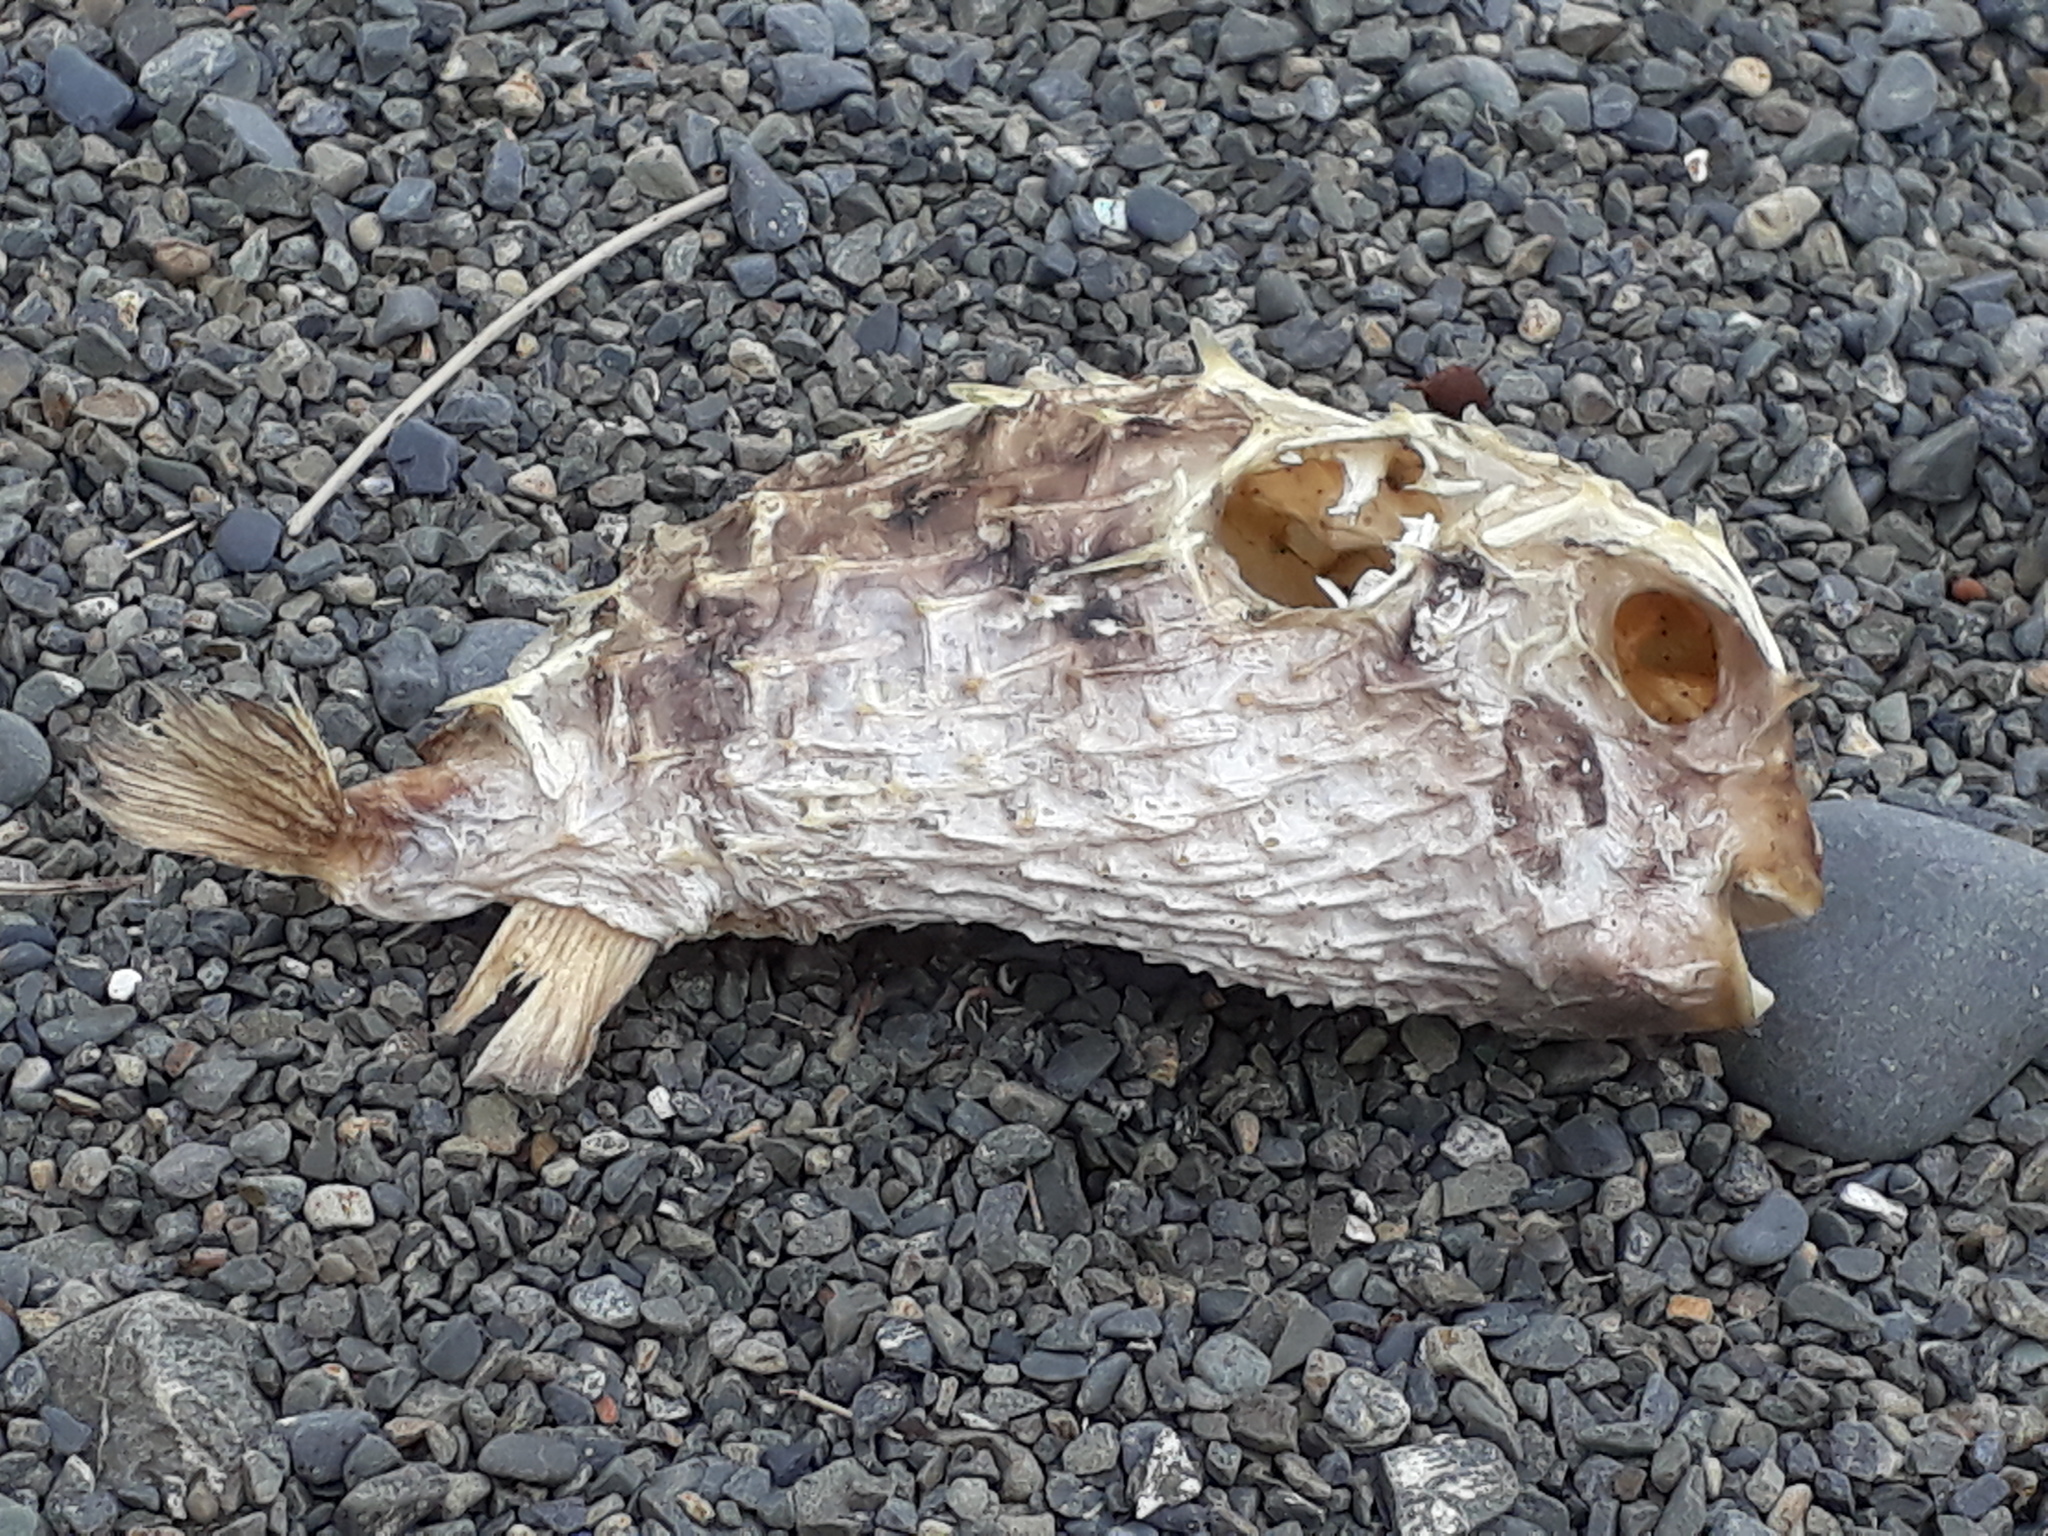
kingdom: Animalia
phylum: Chordata
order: Tetraodontiformes
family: Diodontidae
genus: Allomycterus
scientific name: Allomycterus pilatus
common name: No common name
